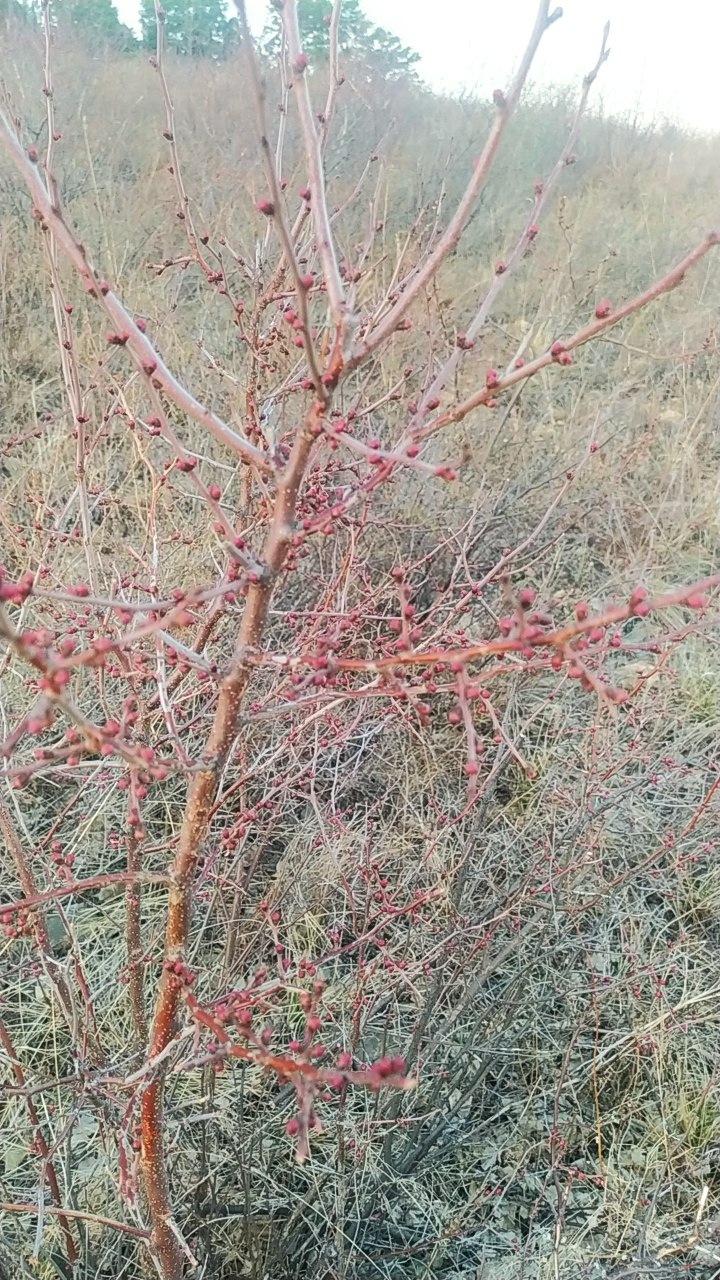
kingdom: Plantae
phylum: Tracheophyta
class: Magnoliopsida
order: Rosales
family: Rosaceae
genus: Prunus
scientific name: Prunus sibirica
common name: Siberian apricot
